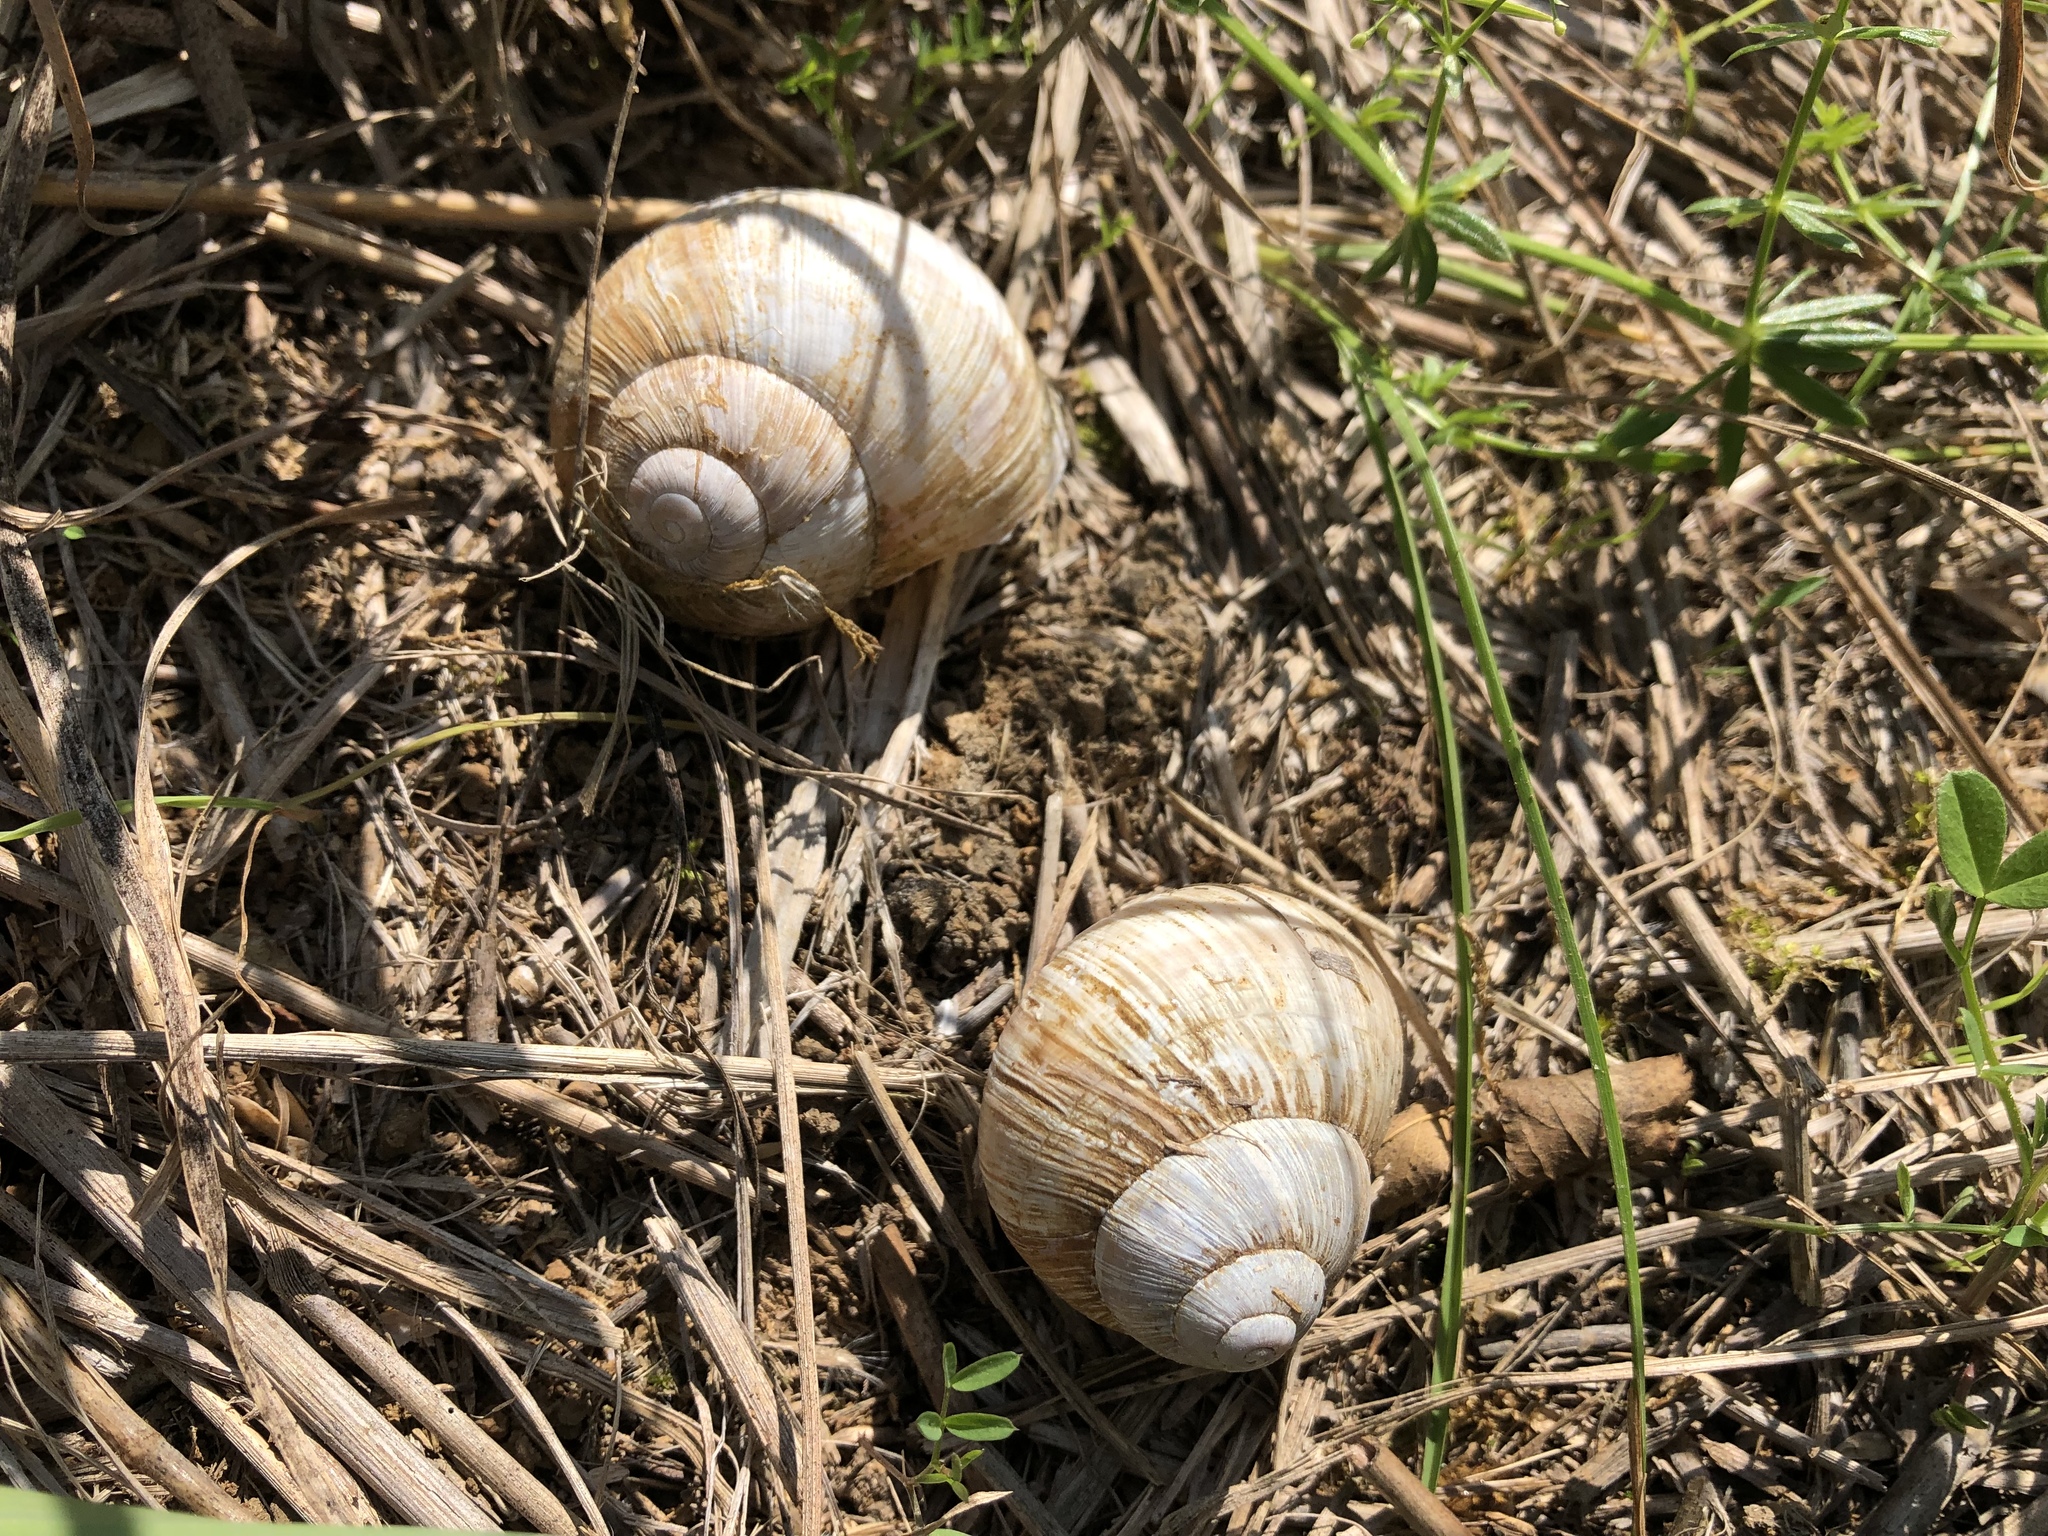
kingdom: Animalia
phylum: Mollusca
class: Gastropoda
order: Stylommatophora
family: Helicidae
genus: Helix
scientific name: Helix pomatia
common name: Roman snail
